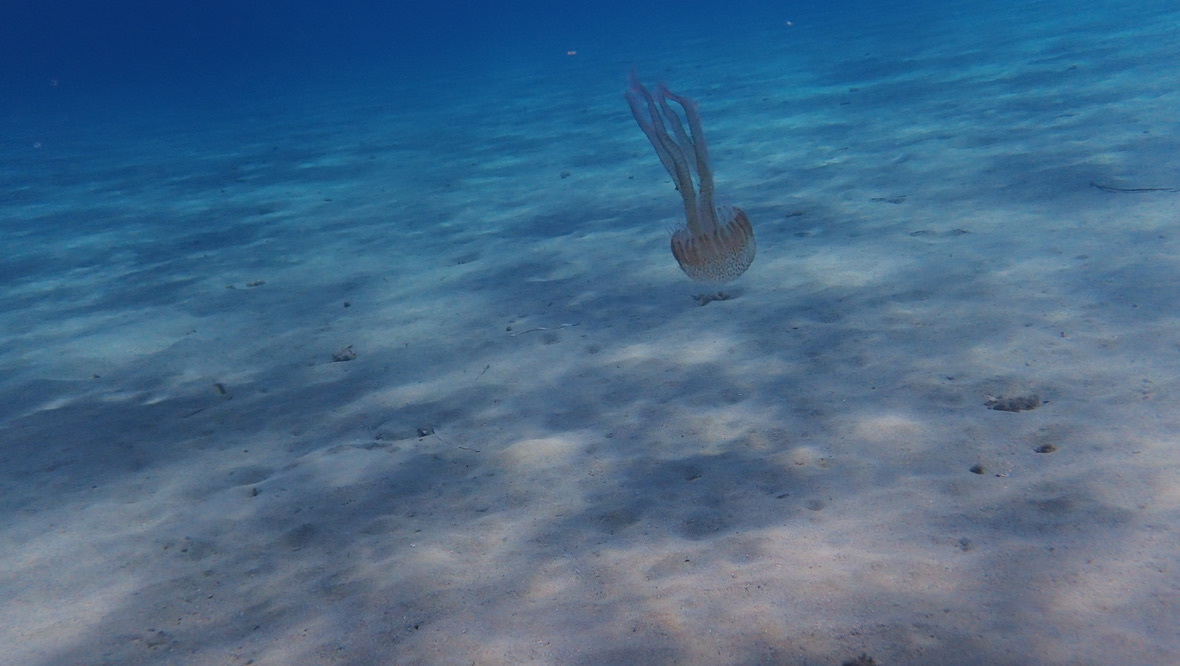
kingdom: Animalia
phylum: Cnidaria
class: Scyphozoa
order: Semaeostomeae
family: Pelagiidae
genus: Pelagia
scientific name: Pelagia noctiluca
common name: Mauve stinger
